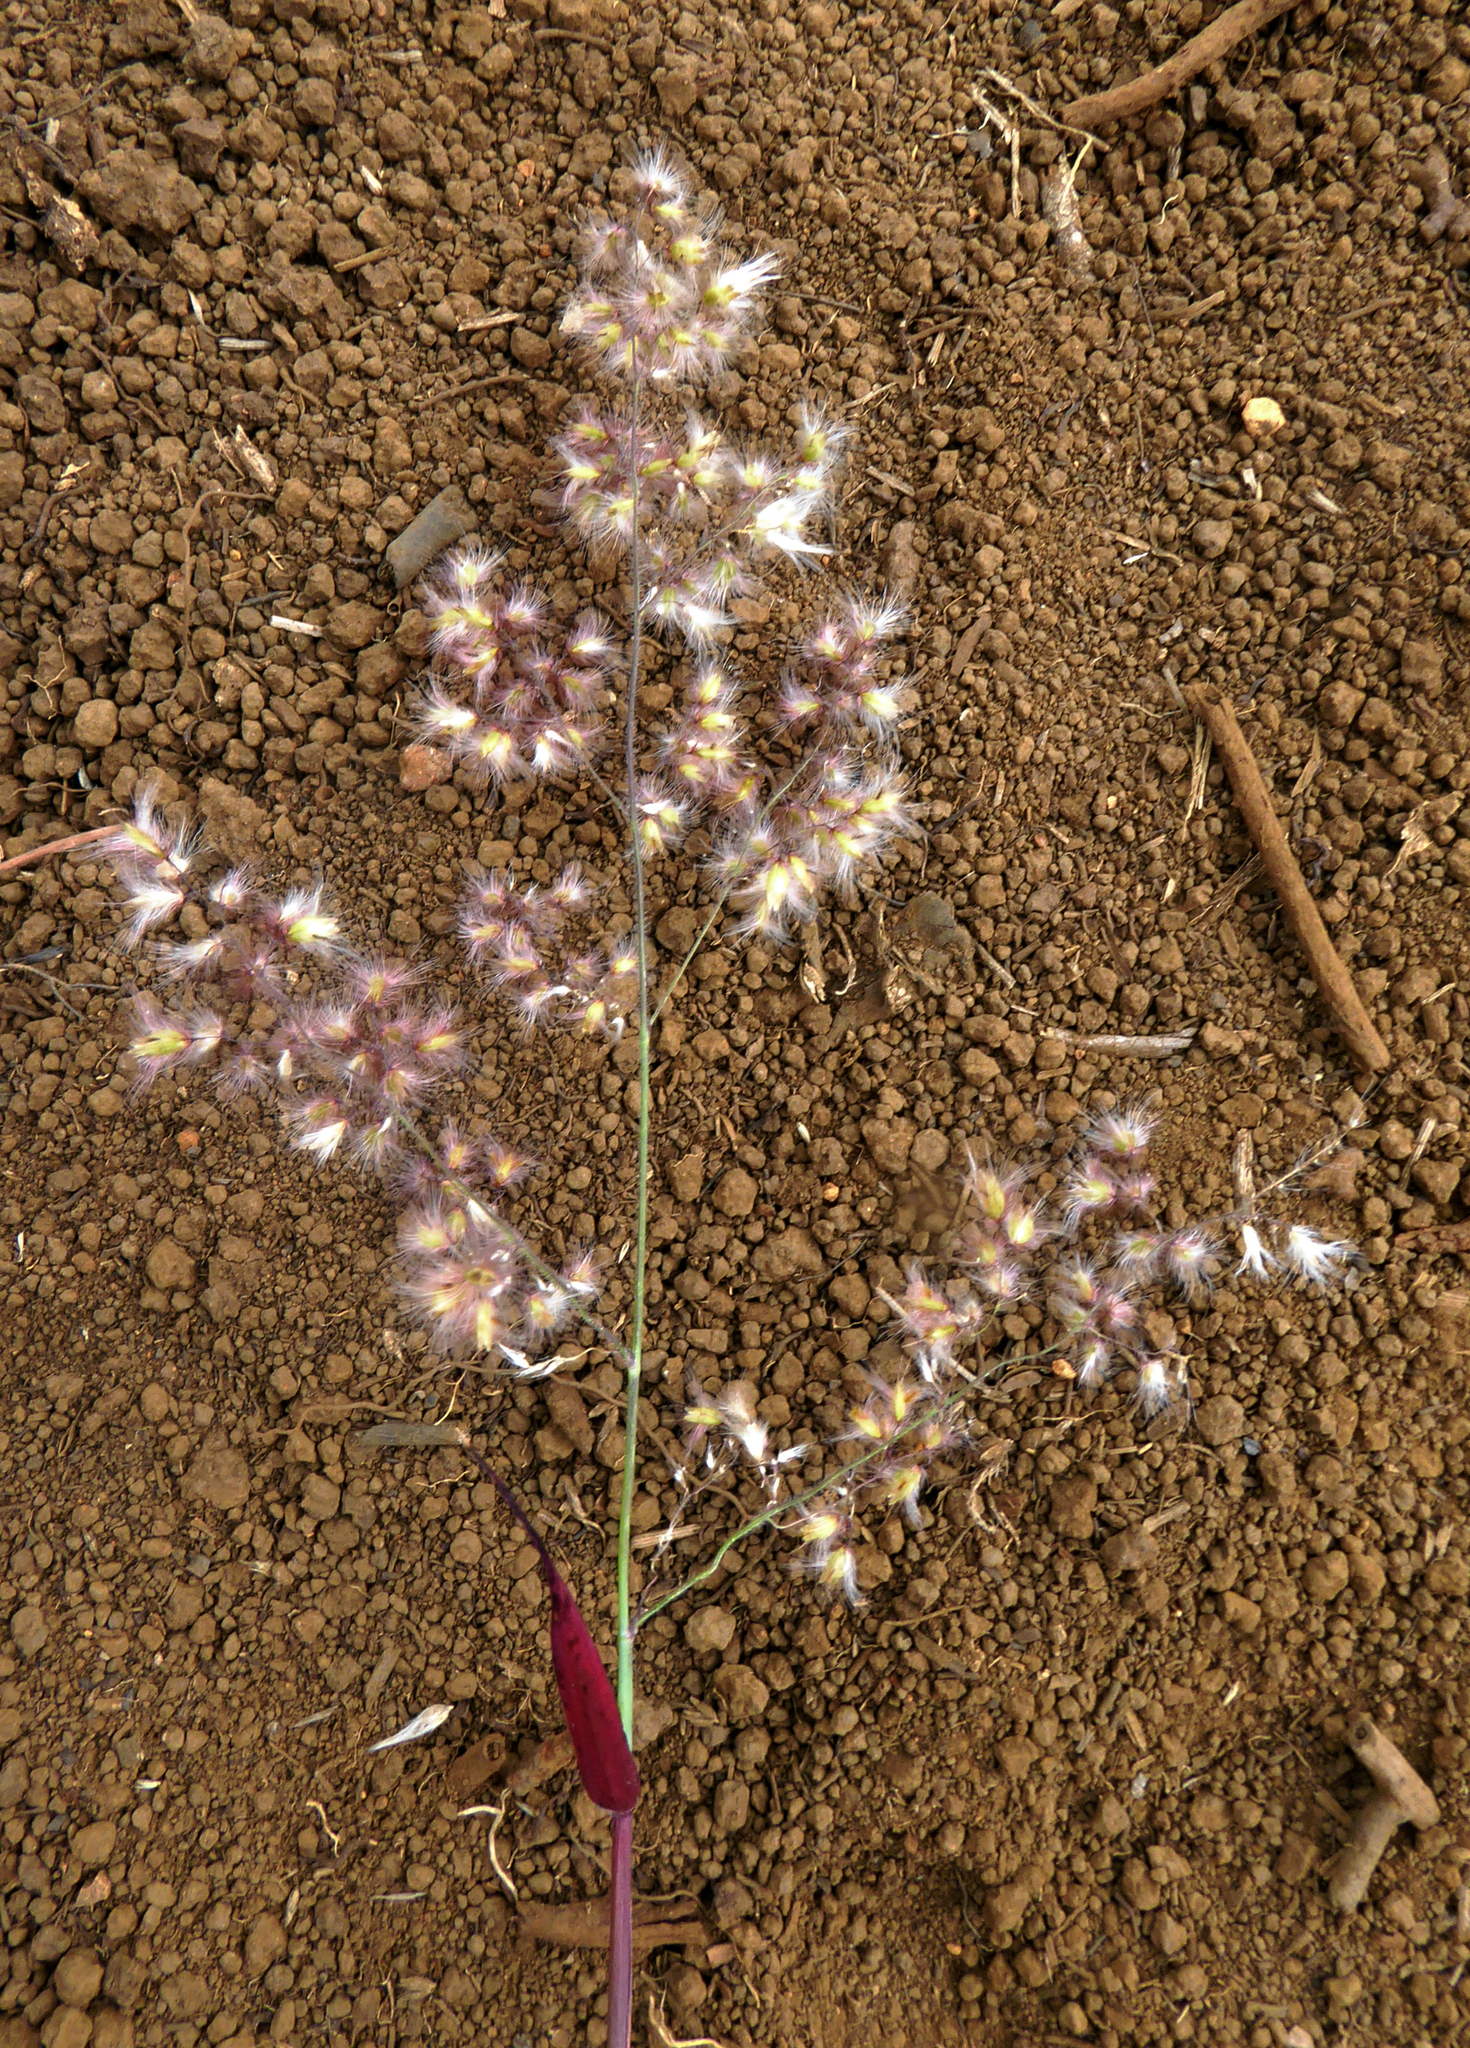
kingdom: Plantae
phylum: Tracheophyta
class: Liliopsida
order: Poales
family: Poaceae
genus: Melinis
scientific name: Melinis repens
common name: Rose natal grass
